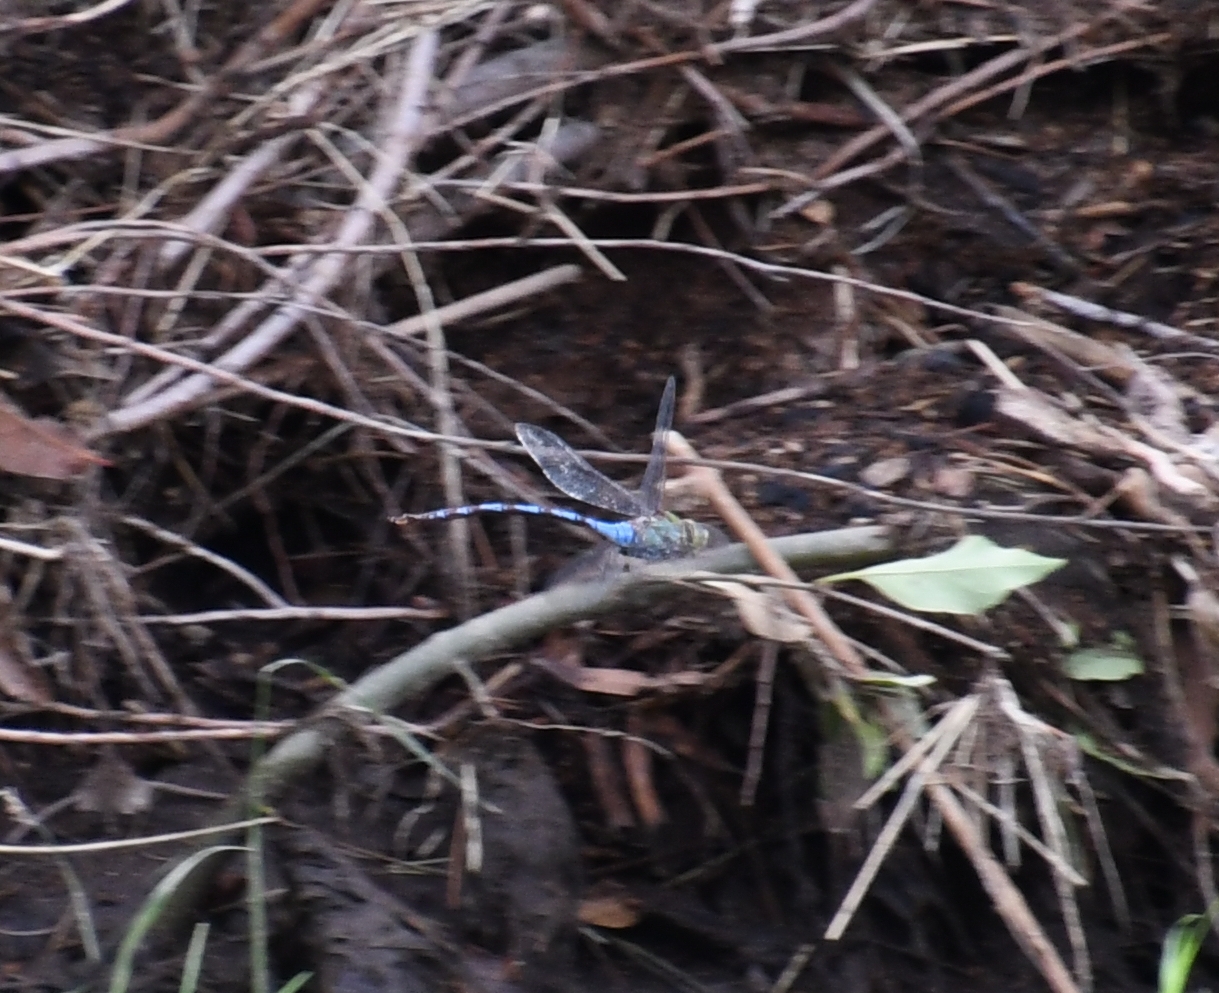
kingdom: Animalia
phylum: Arthropoda
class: Insecta
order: Odonata
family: Aeshnidae
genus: Anax
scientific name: Anax walsinghami
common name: Giant darner
